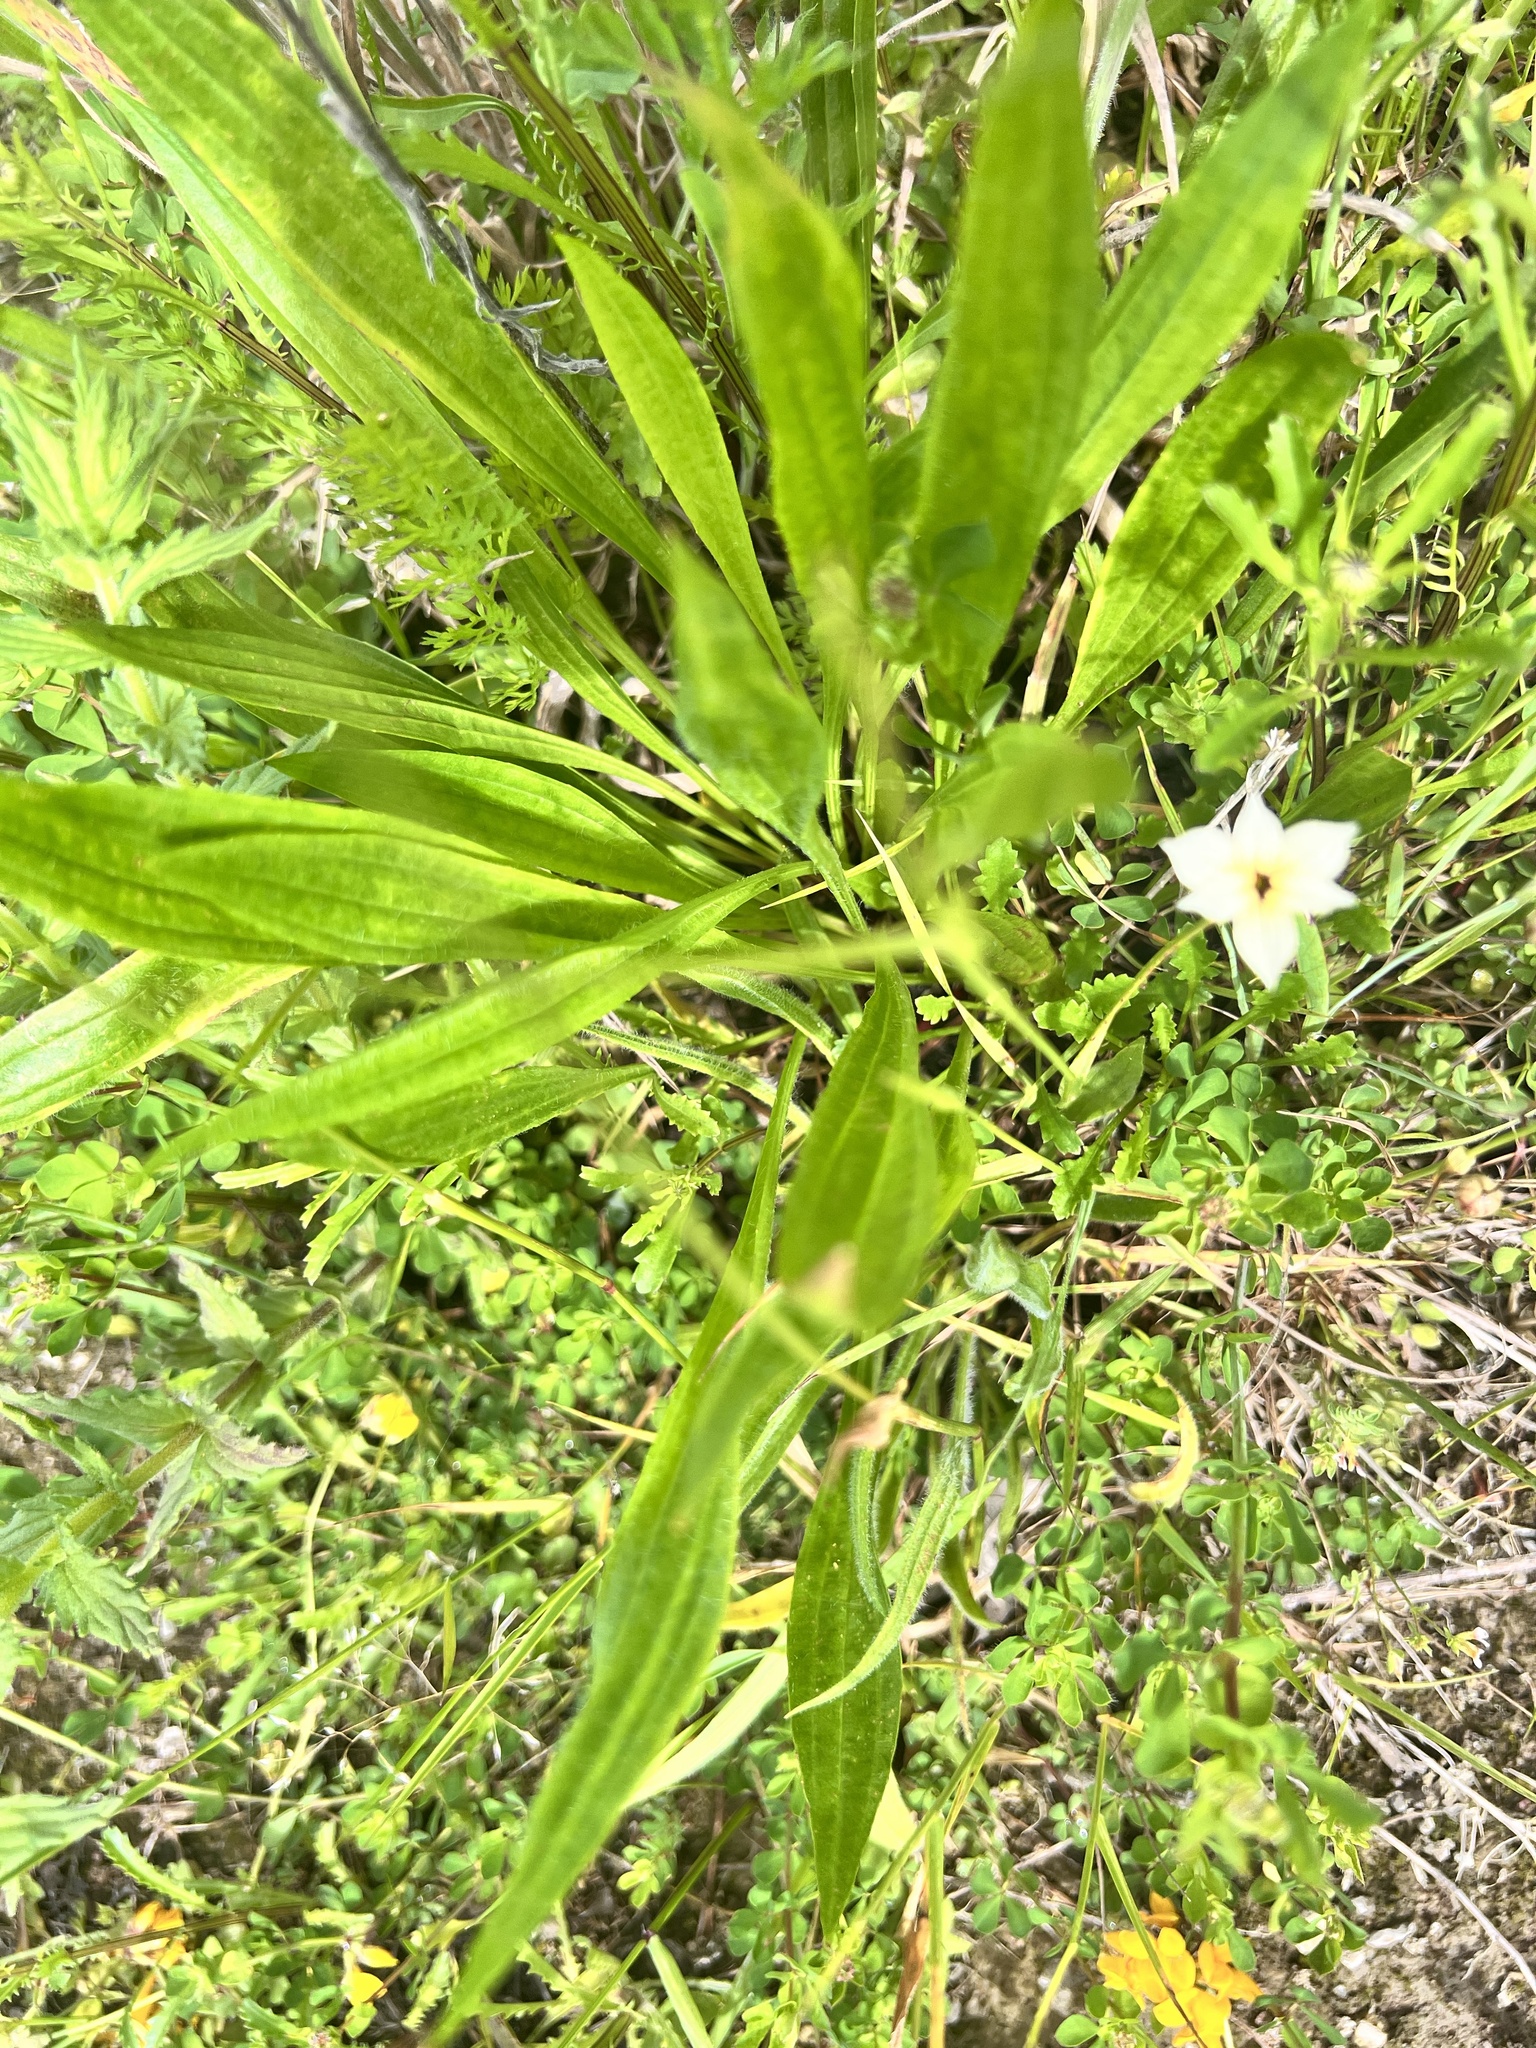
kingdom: Plantae
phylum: Tracheophyta
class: Magnoliopsida
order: Lamiales
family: Plantaginaceae
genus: Plantago
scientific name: Plantago lanceolata
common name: Ribwort plantain
